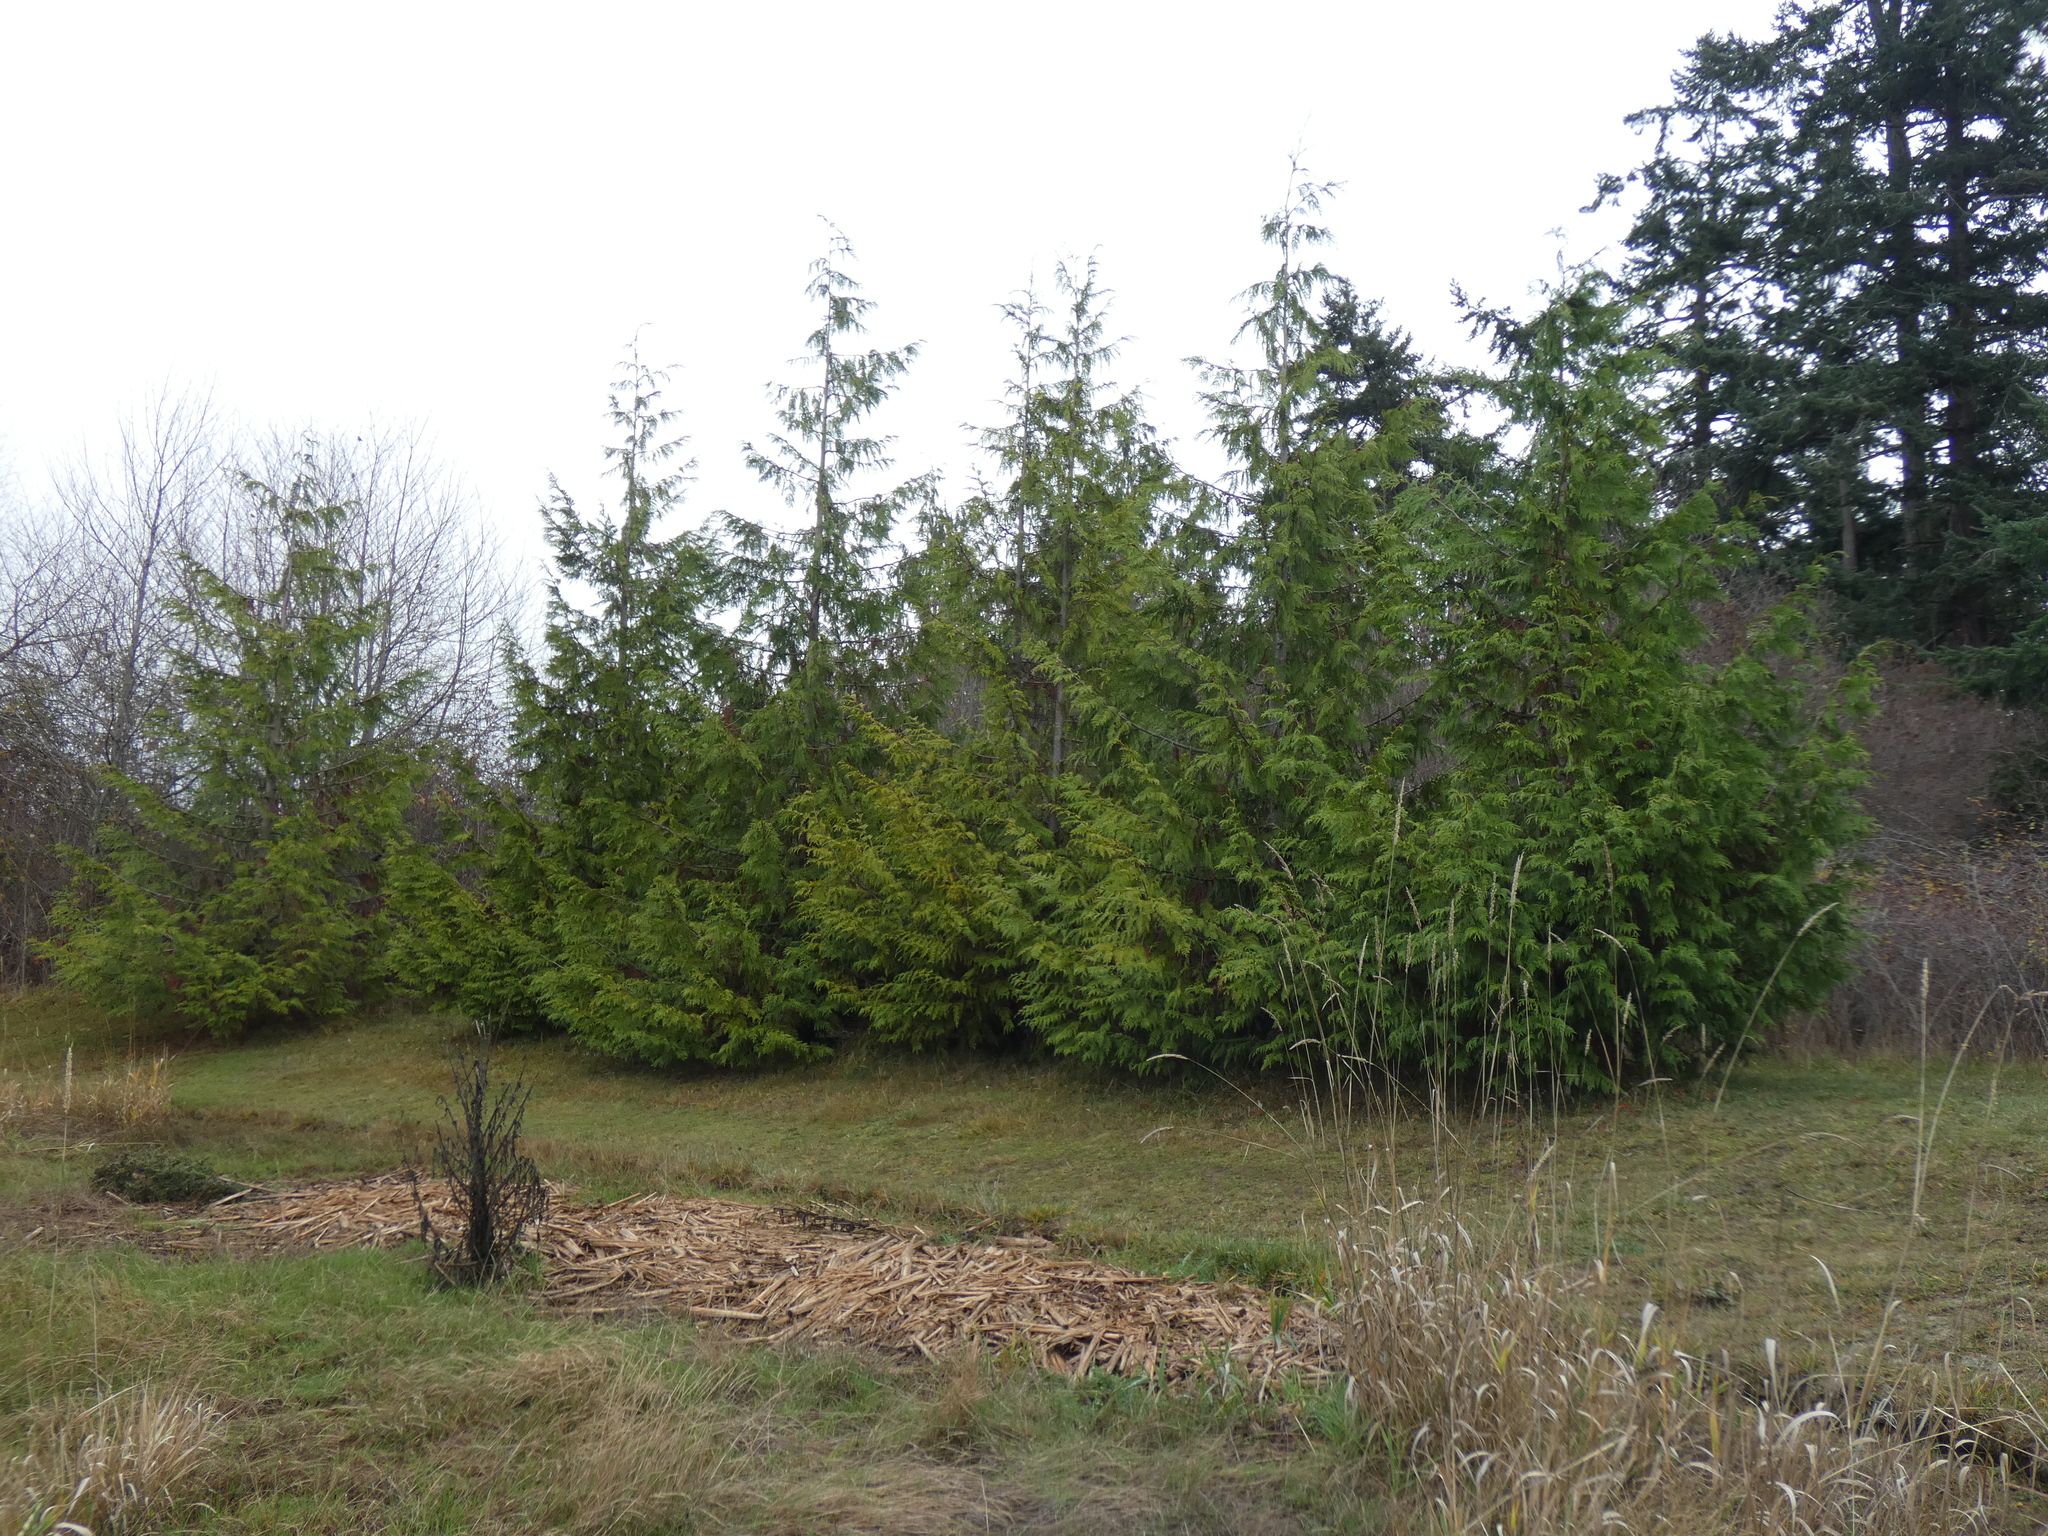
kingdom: Plantae
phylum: Tracheophyta
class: Pinopsida
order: Pinales
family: Cupressaceae
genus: Thuja
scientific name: Thuja plicata
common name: Western red-cedar
